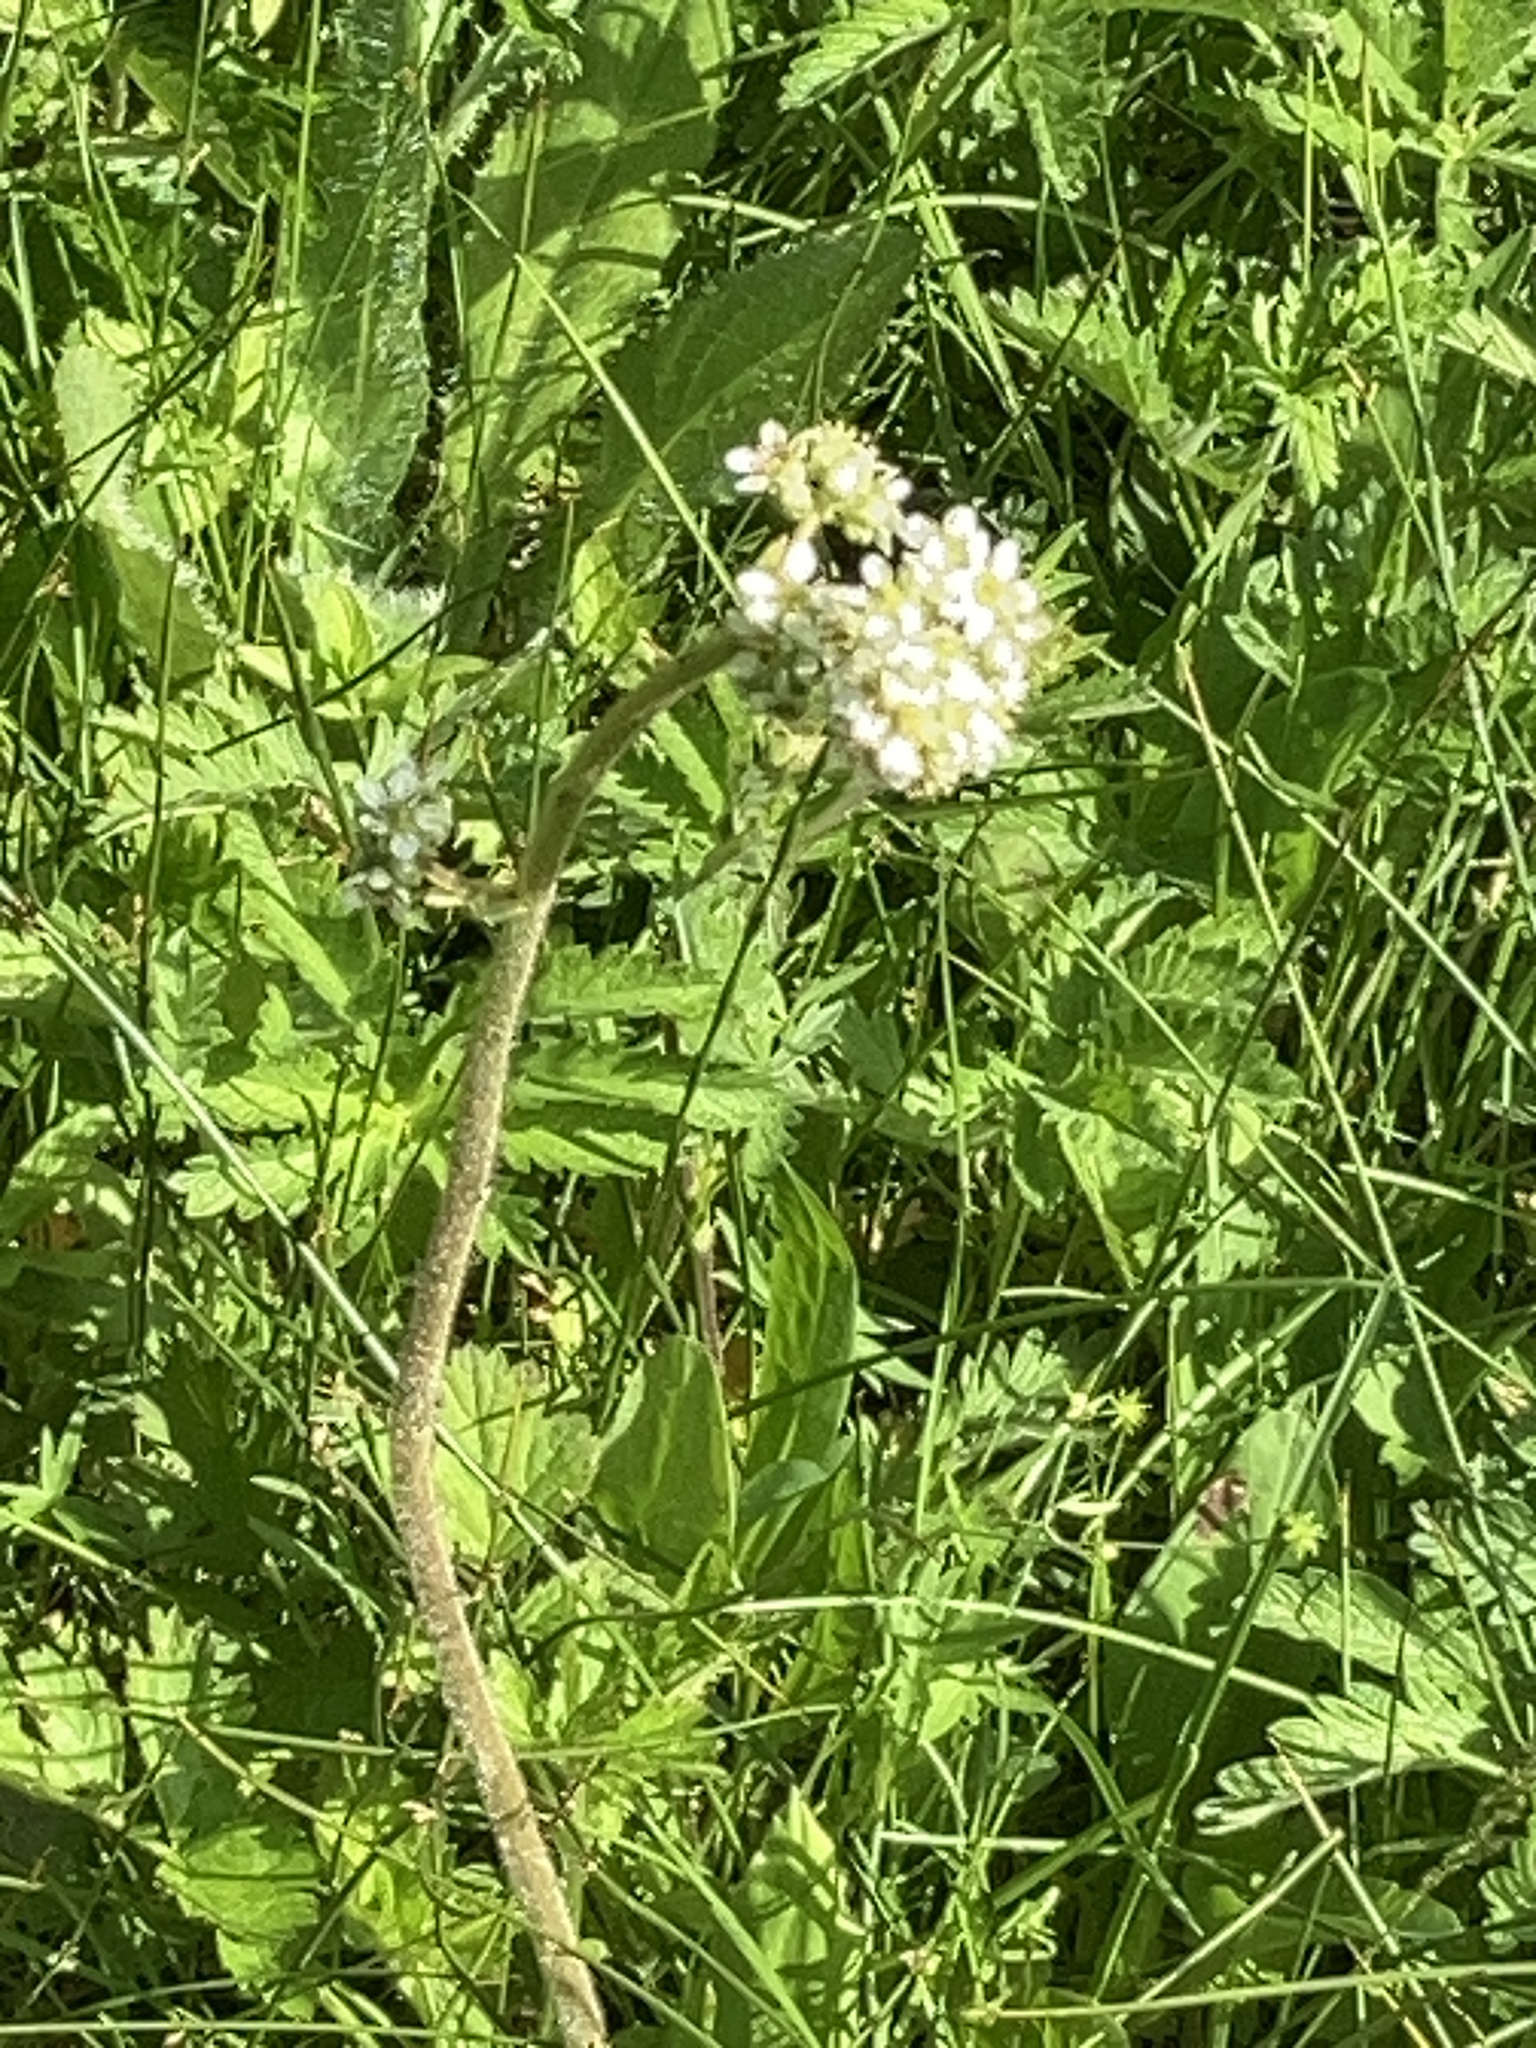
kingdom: Plantae
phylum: Tracheophyta
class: Magnoliopsida
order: Saxifragales
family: Saxifragaceae
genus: Micranthes
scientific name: Micranthes oregana
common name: Bog saxifrage
